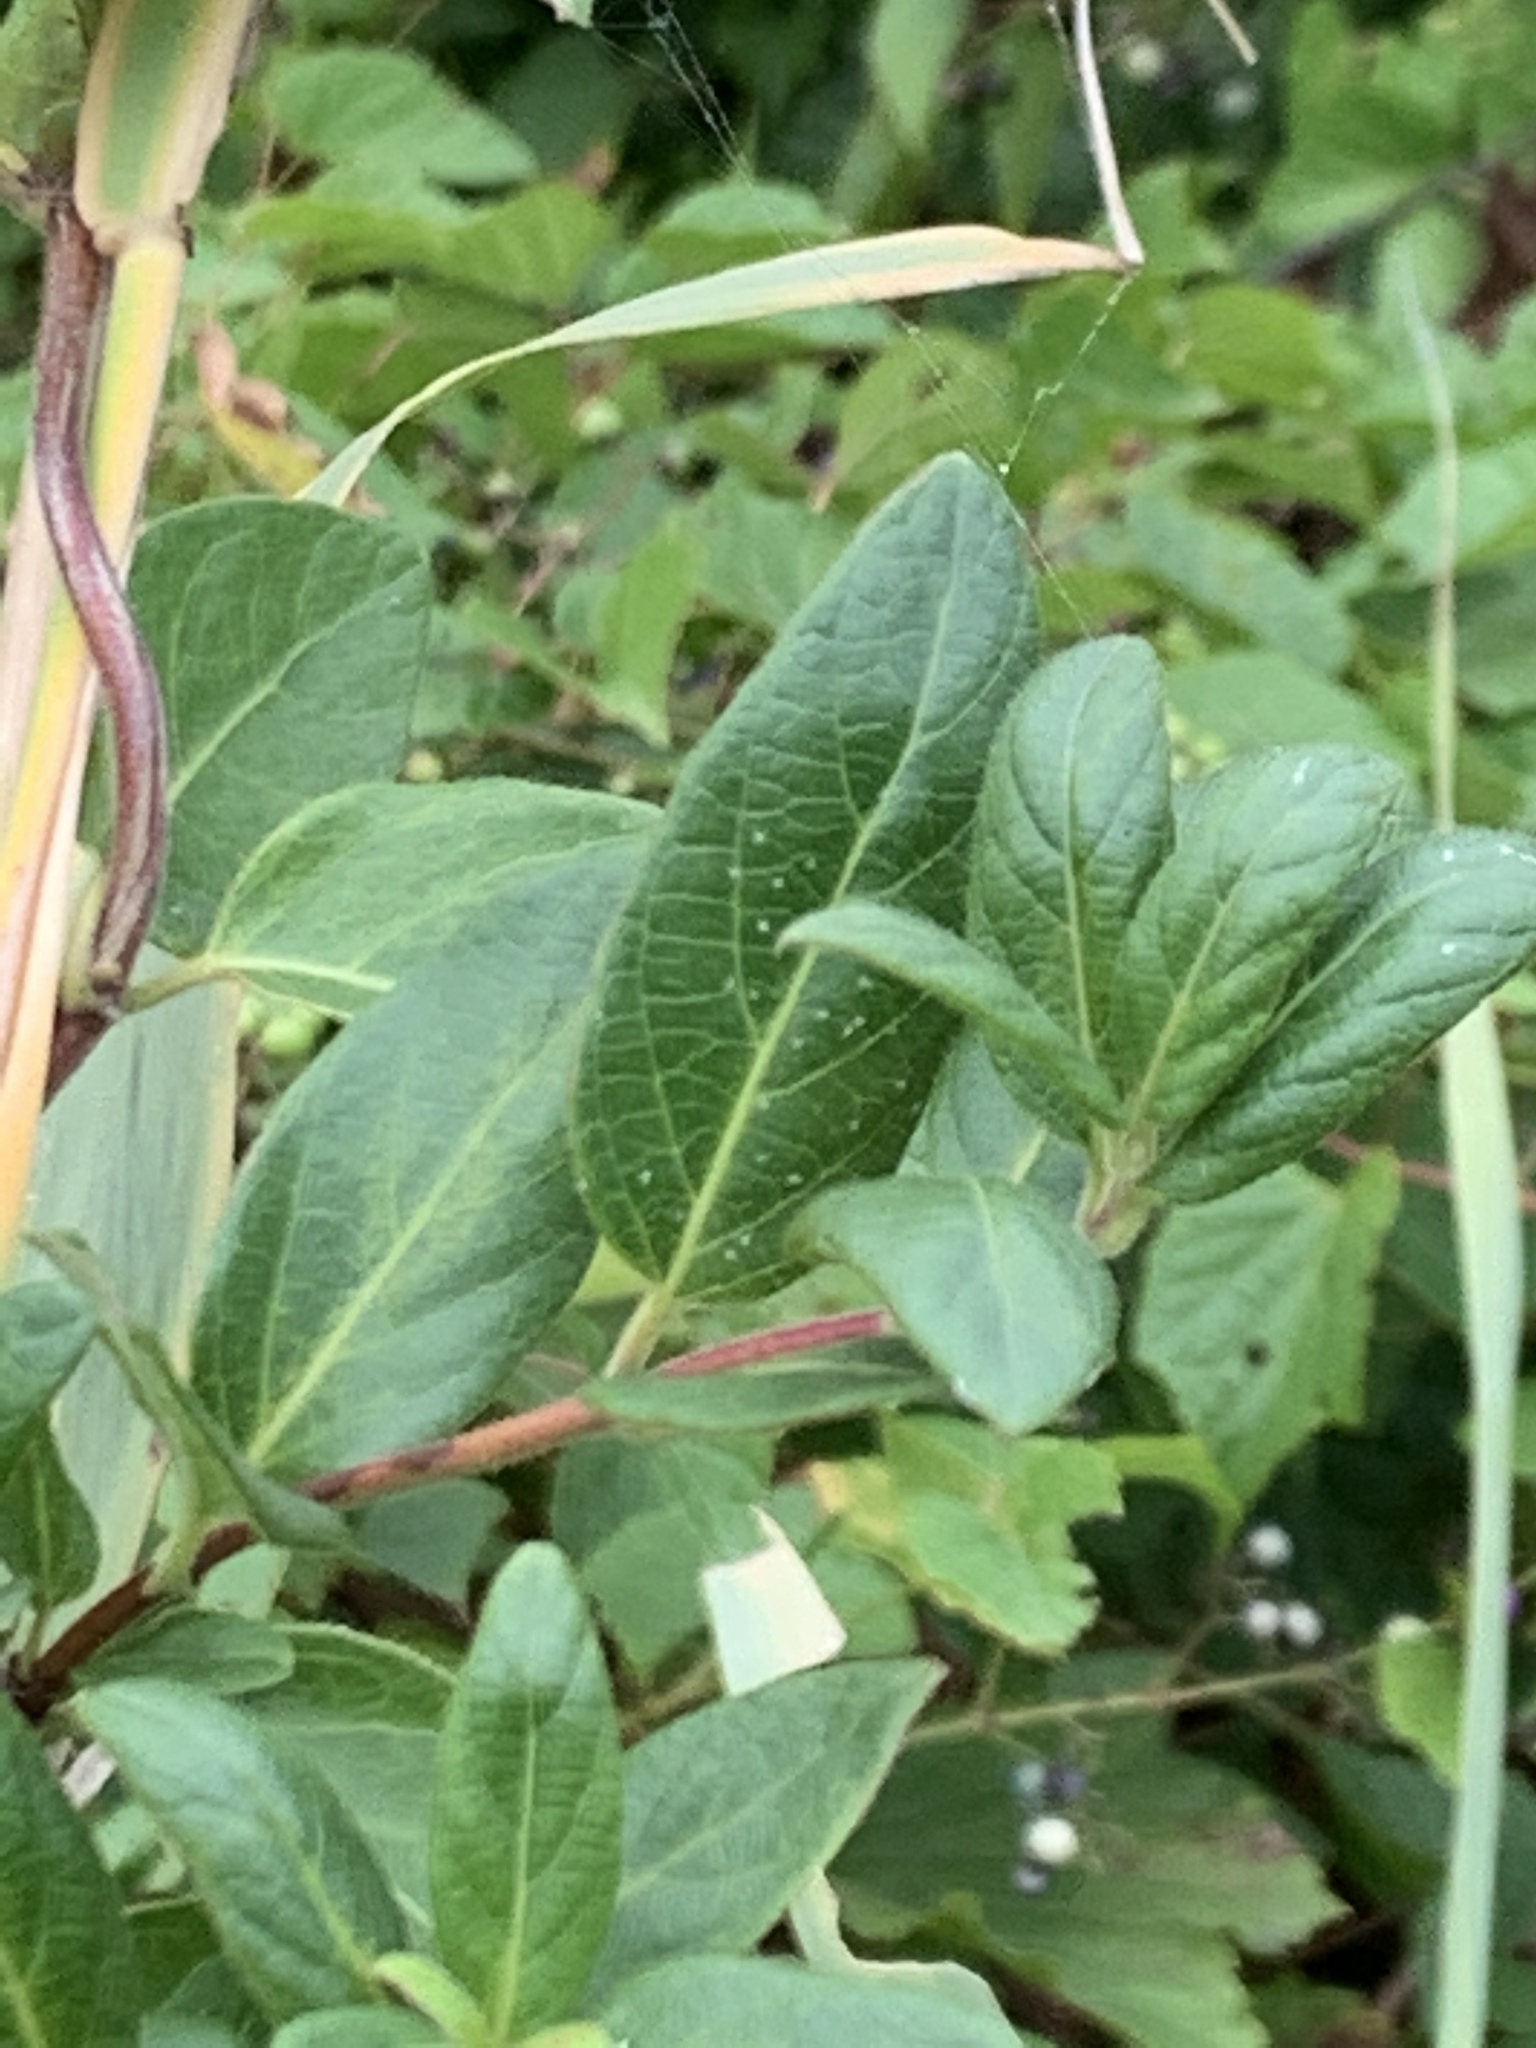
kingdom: Plantae
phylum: Tracheophyta
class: Magnoliopsida
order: Dipsacales
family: Caprifoliaceae
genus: Lonicera
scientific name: Lonicera japonica
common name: Japanese honeysuckle
